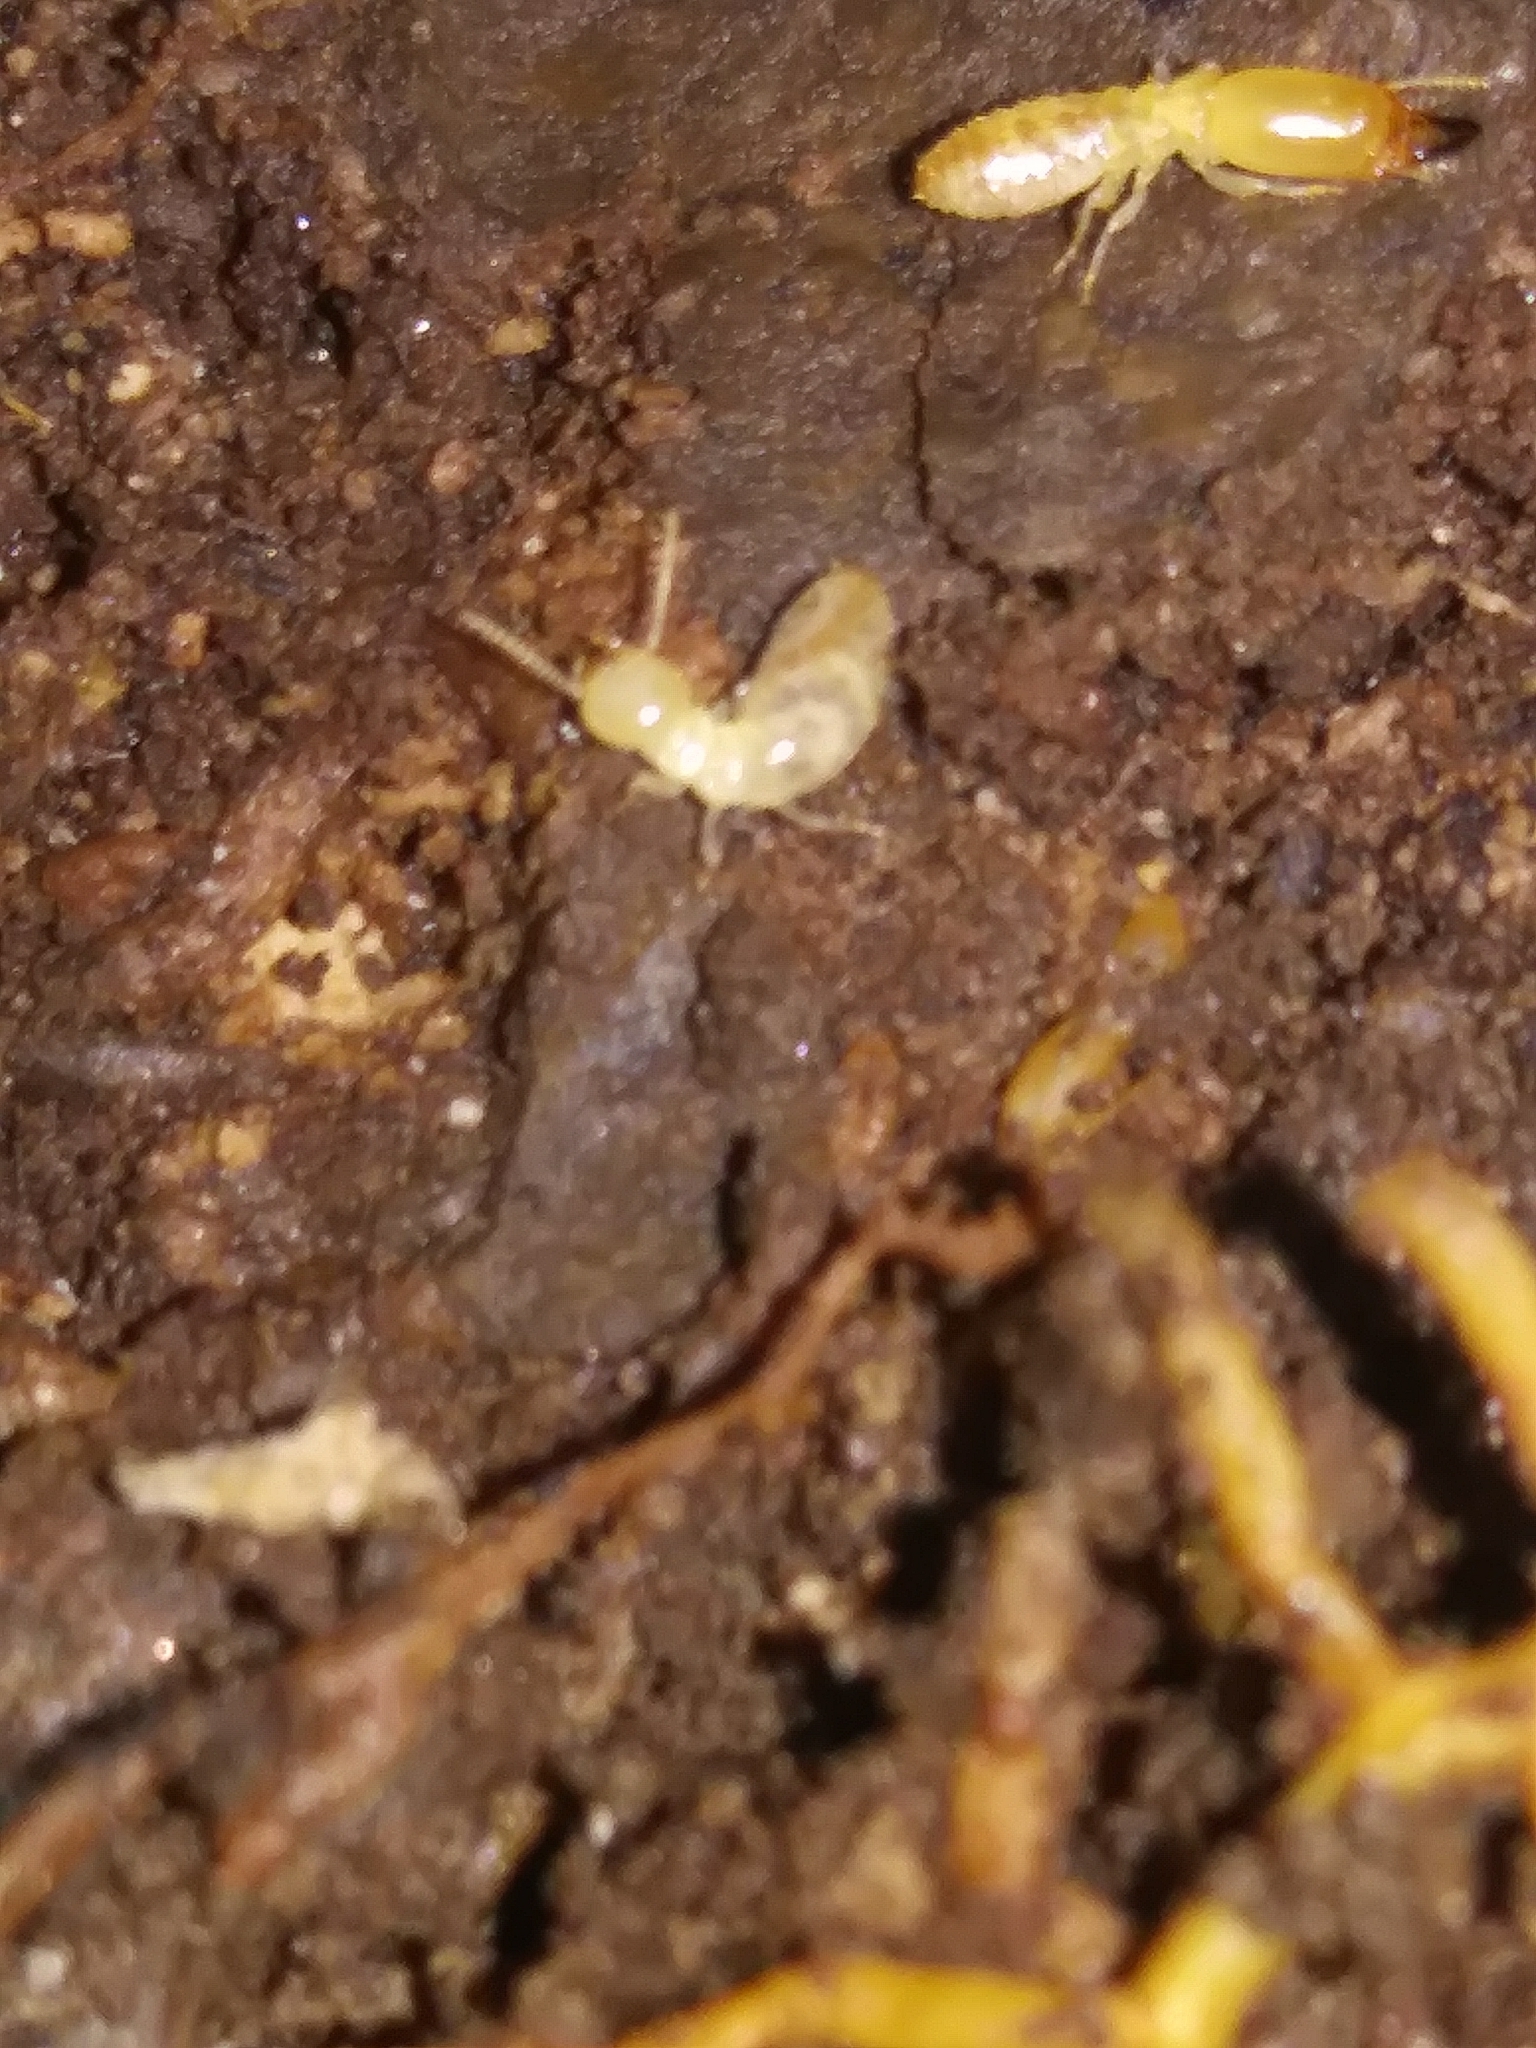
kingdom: Animalia
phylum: Arthropoda
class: Insecta
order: Blattodea
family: Rhinotermitidae
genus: Reticulitermes
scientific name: Reticulitermes flavipes
